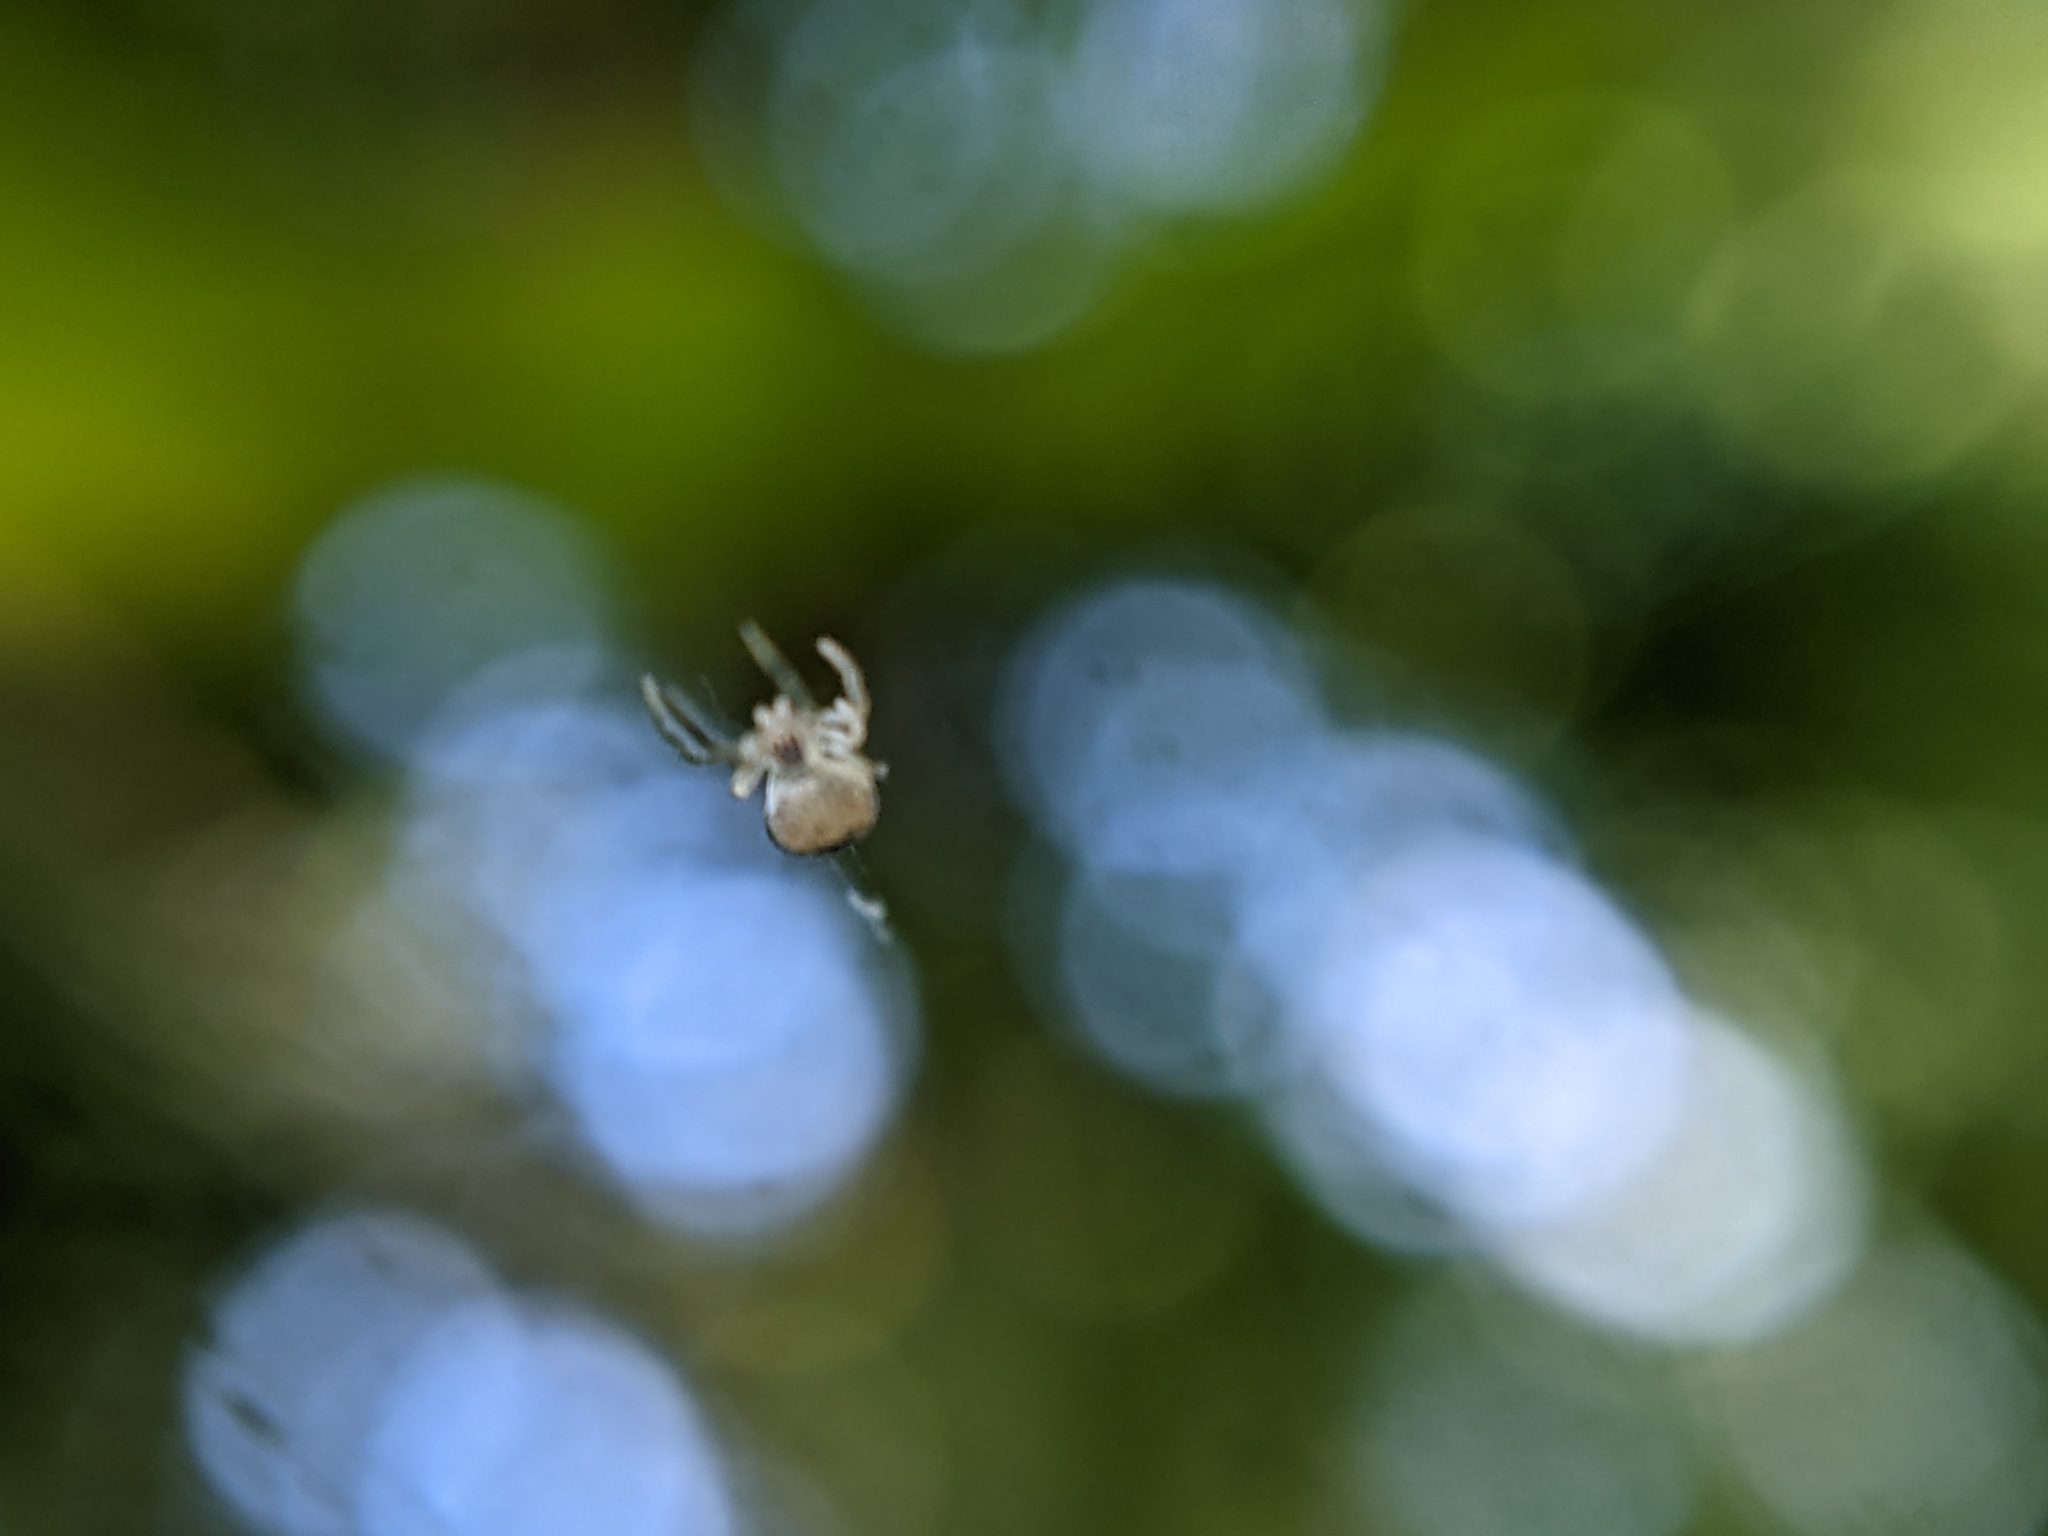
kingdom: Animalia
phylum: Arthropoda
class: Arachnida
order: Araneae
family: Theridiidae
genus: Paidiscura
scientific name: Paidiscura pallens
